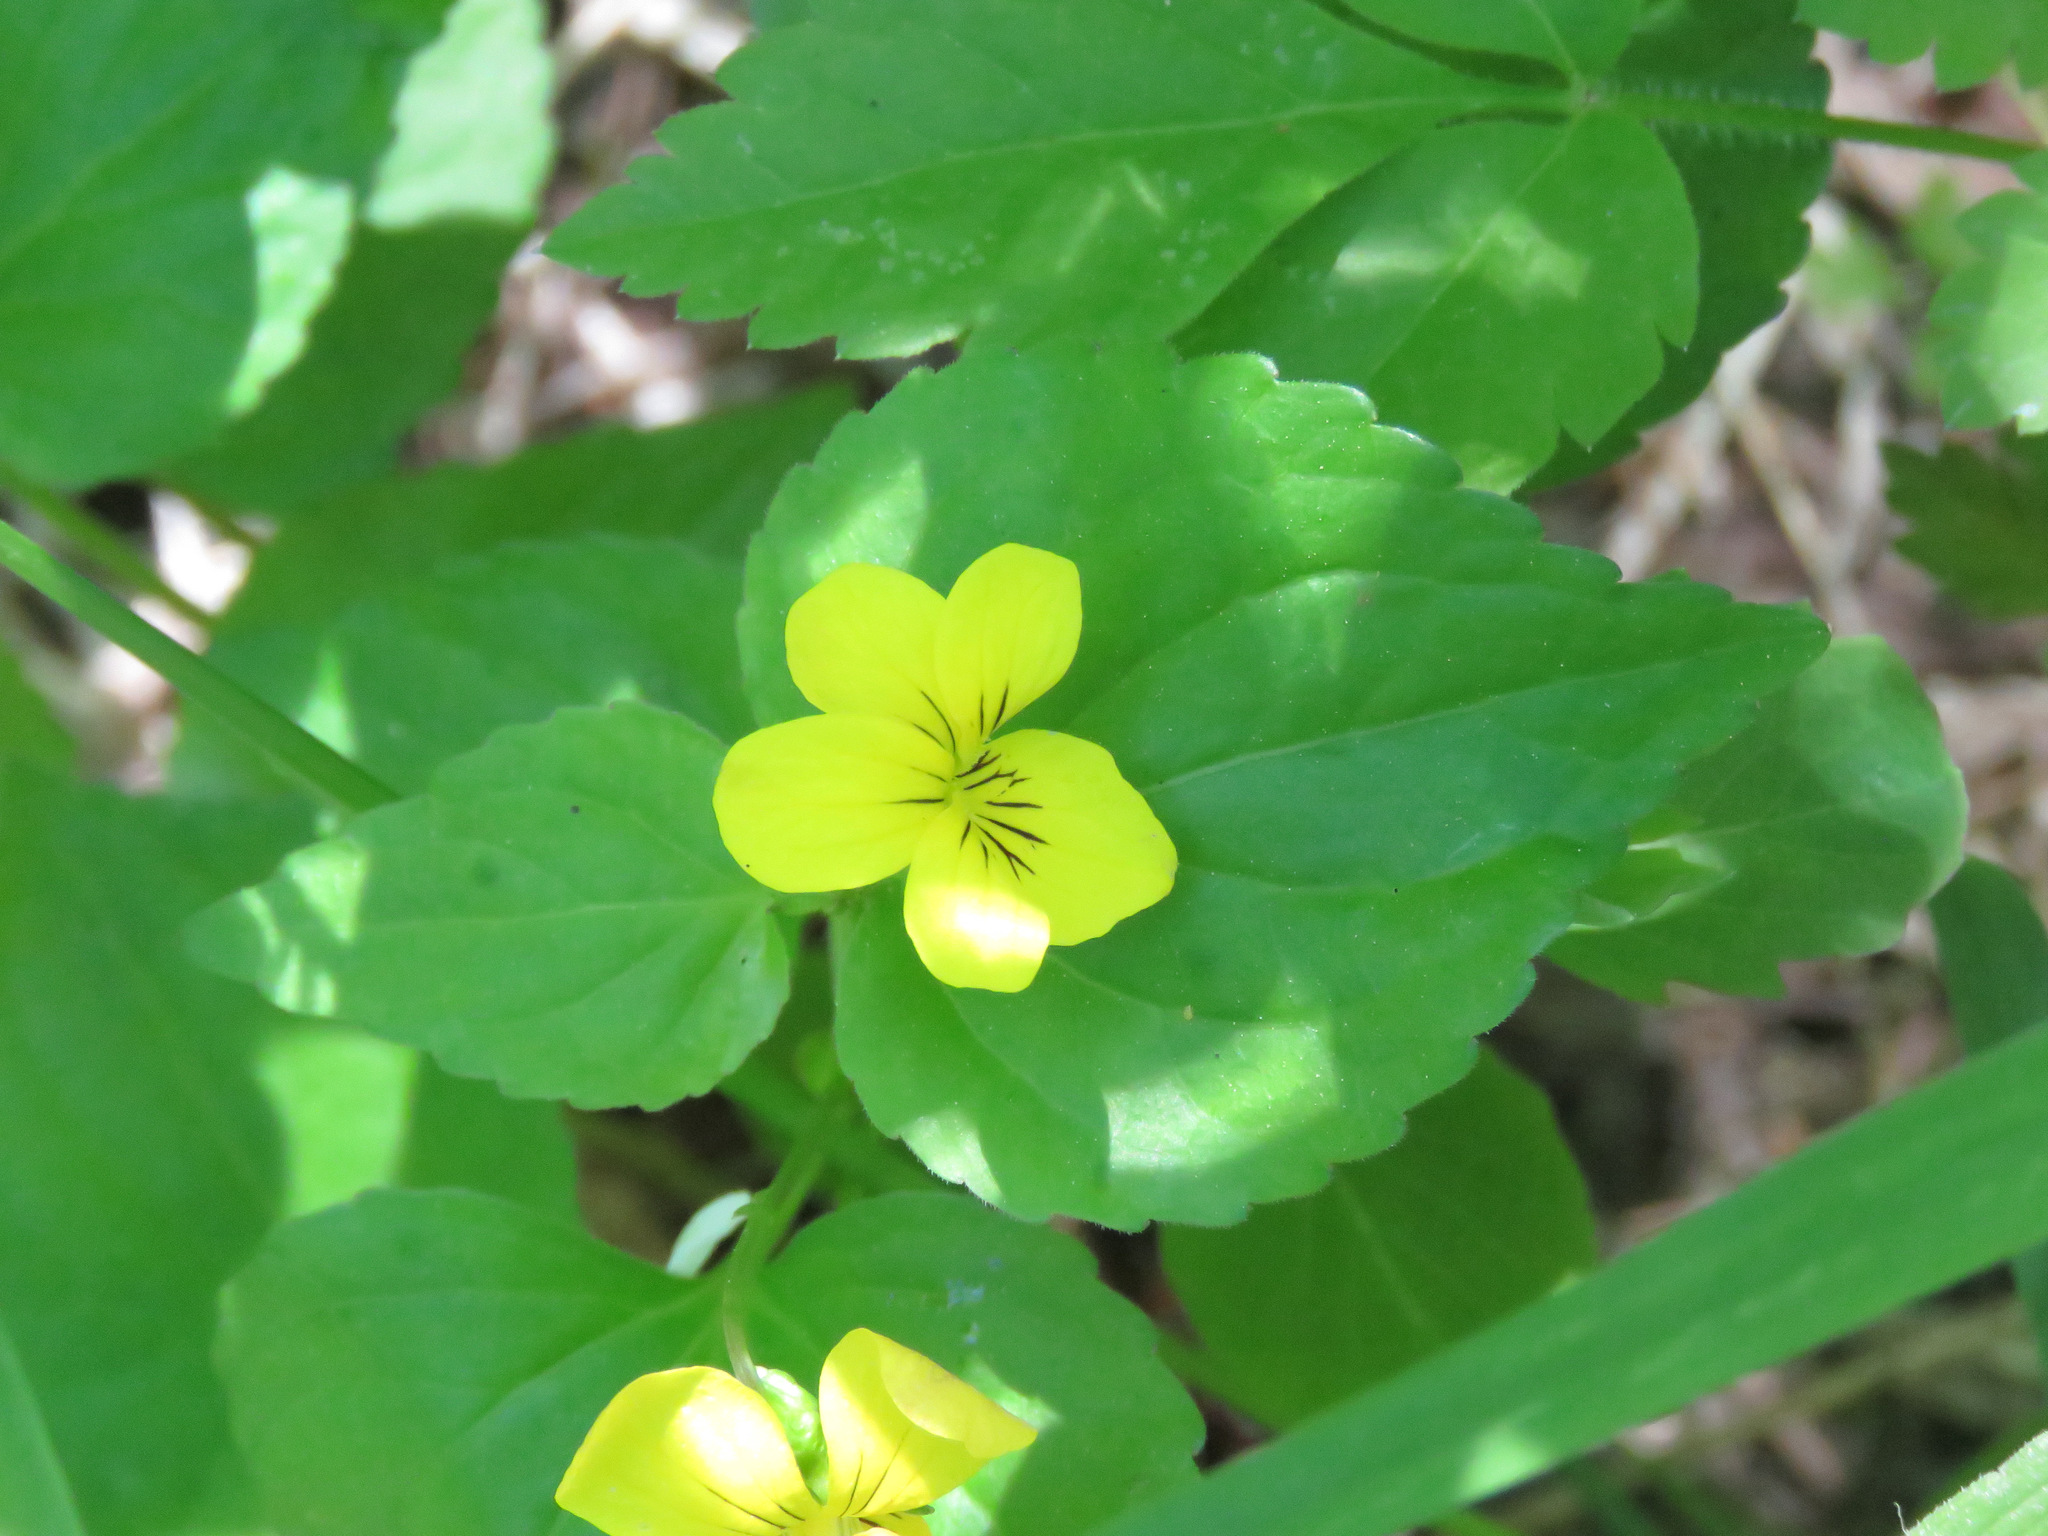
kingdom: Plantae
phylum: Tracheophyta
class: Magnoliopsida
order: Malpighiales
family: Violaceae
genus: Viola
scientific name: Viola glabella
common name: Stream violet
